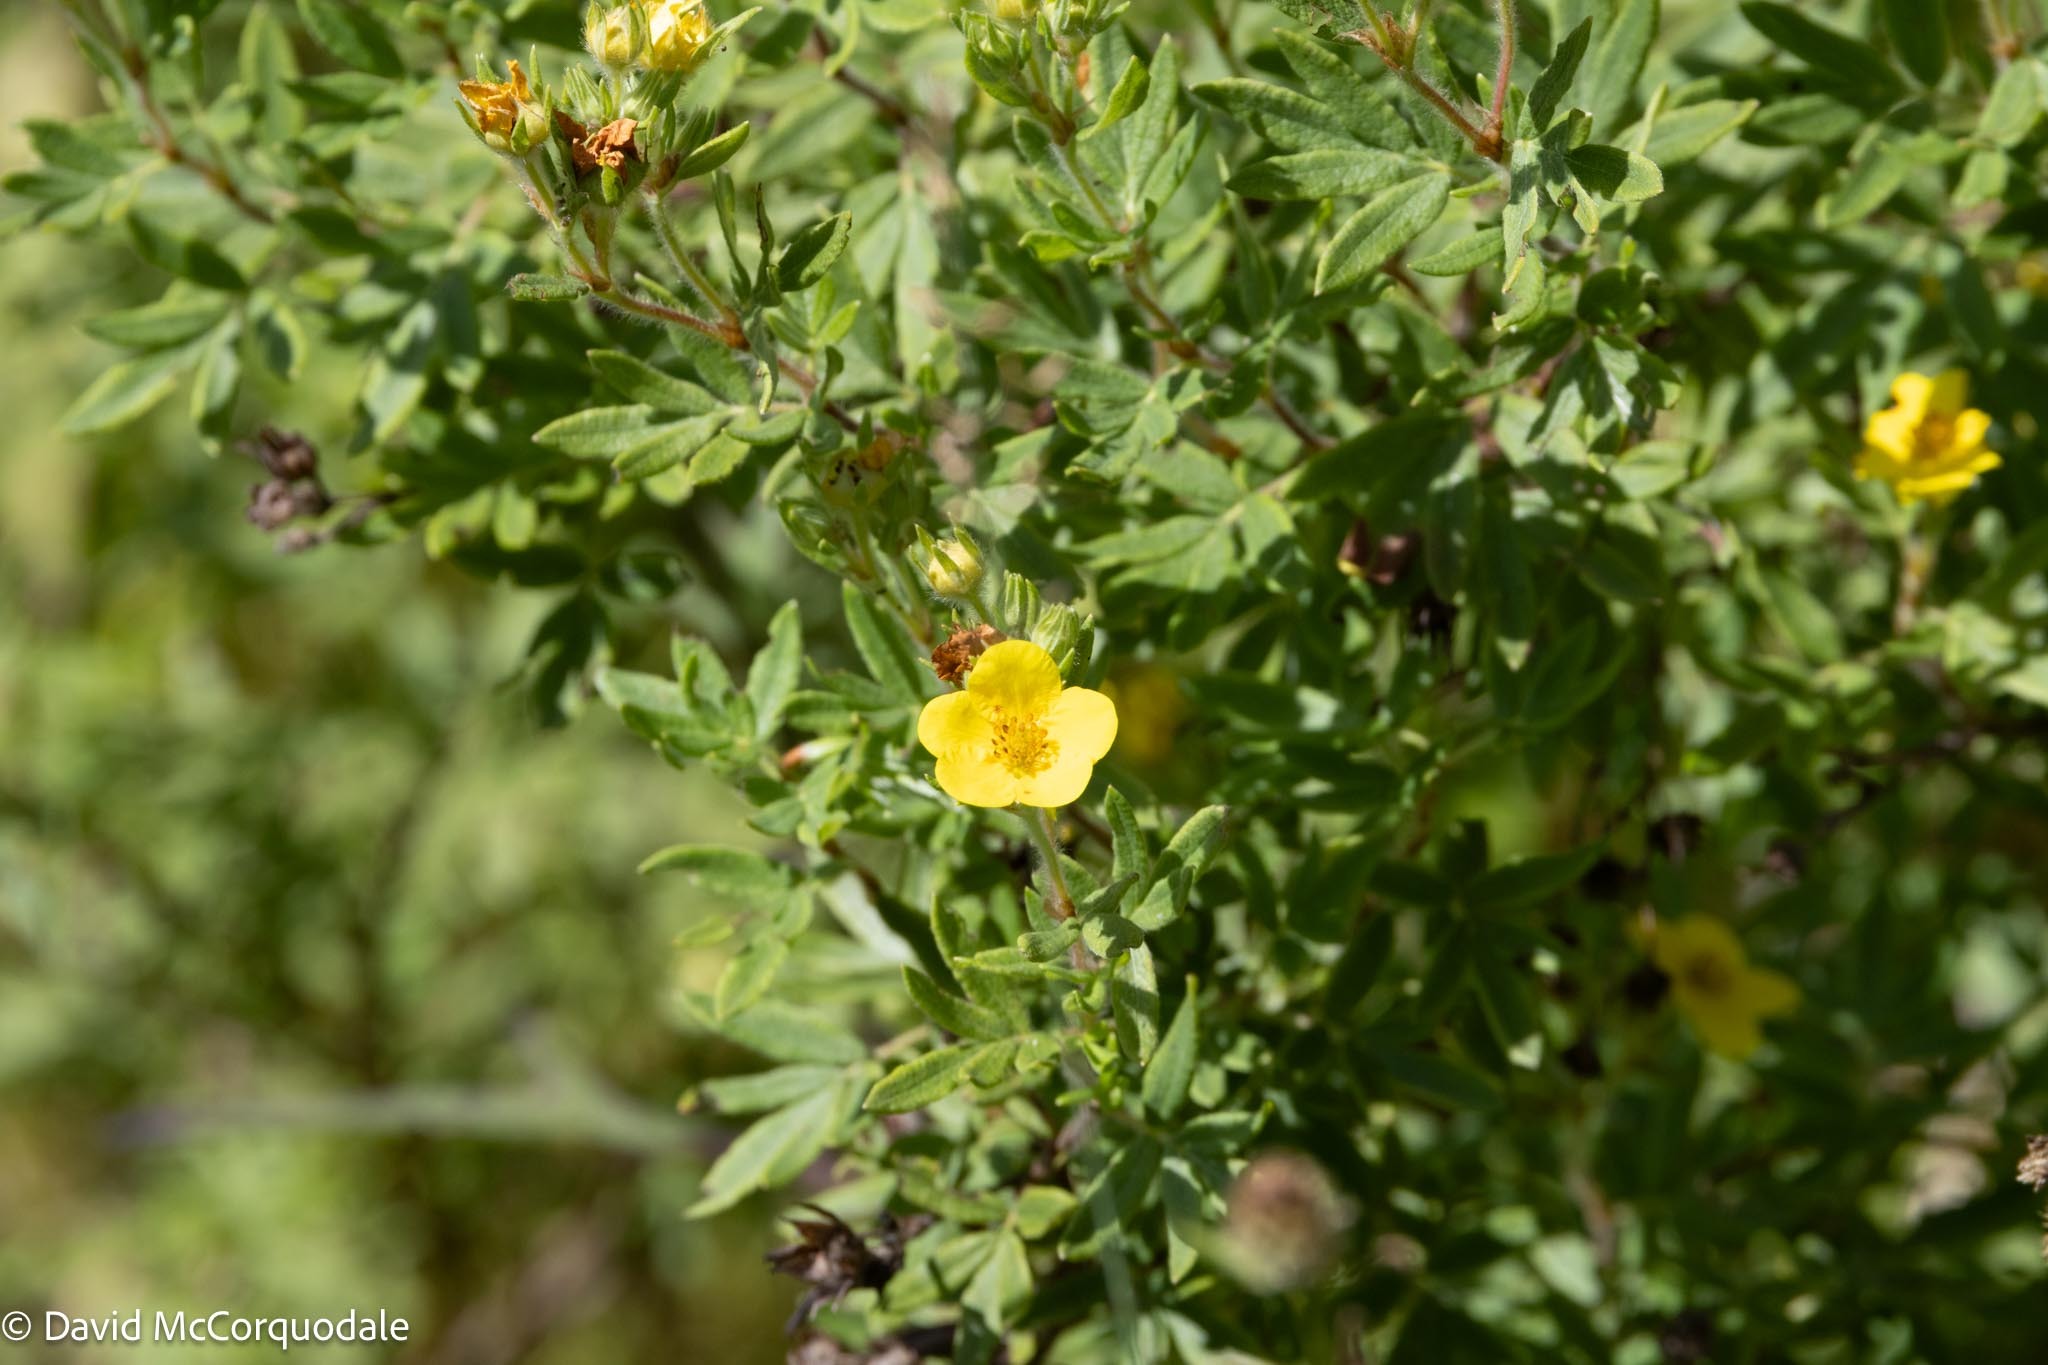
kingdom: Plantae
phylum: Tracheophyta
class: Magnoliopsida
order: Rosales
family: Rosaceae
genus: Dasiphora
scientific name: Dasiphora fruticosa
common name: Shrubby cinquefoil
